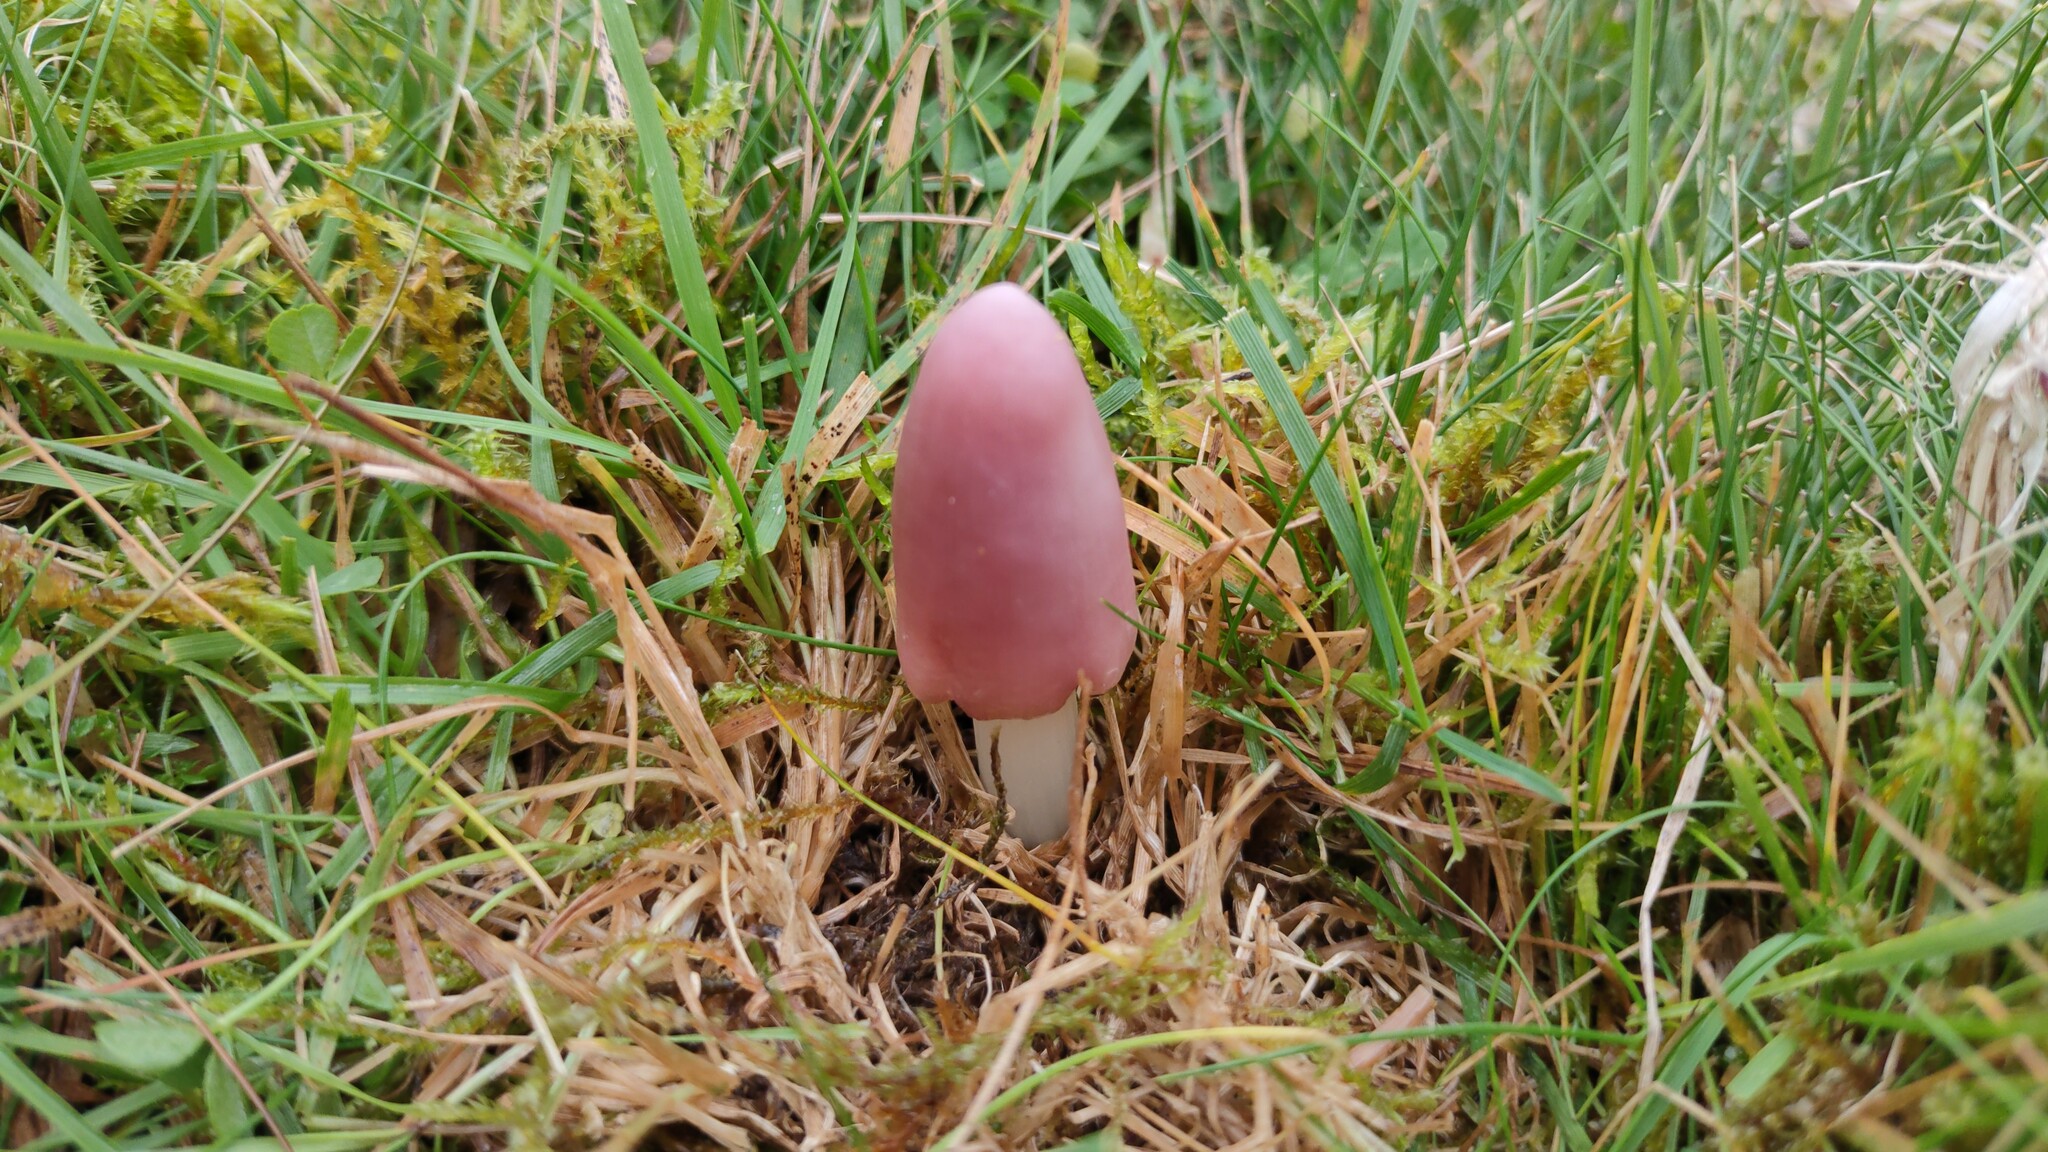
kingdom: Fungi
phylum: Basidiomycota
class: Agaricomycetes
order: Agaricales
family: Hygrophoraceae
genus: Porpolomopsis
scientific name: Porpolomopsis calyptriformis
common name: Pink waxcap
